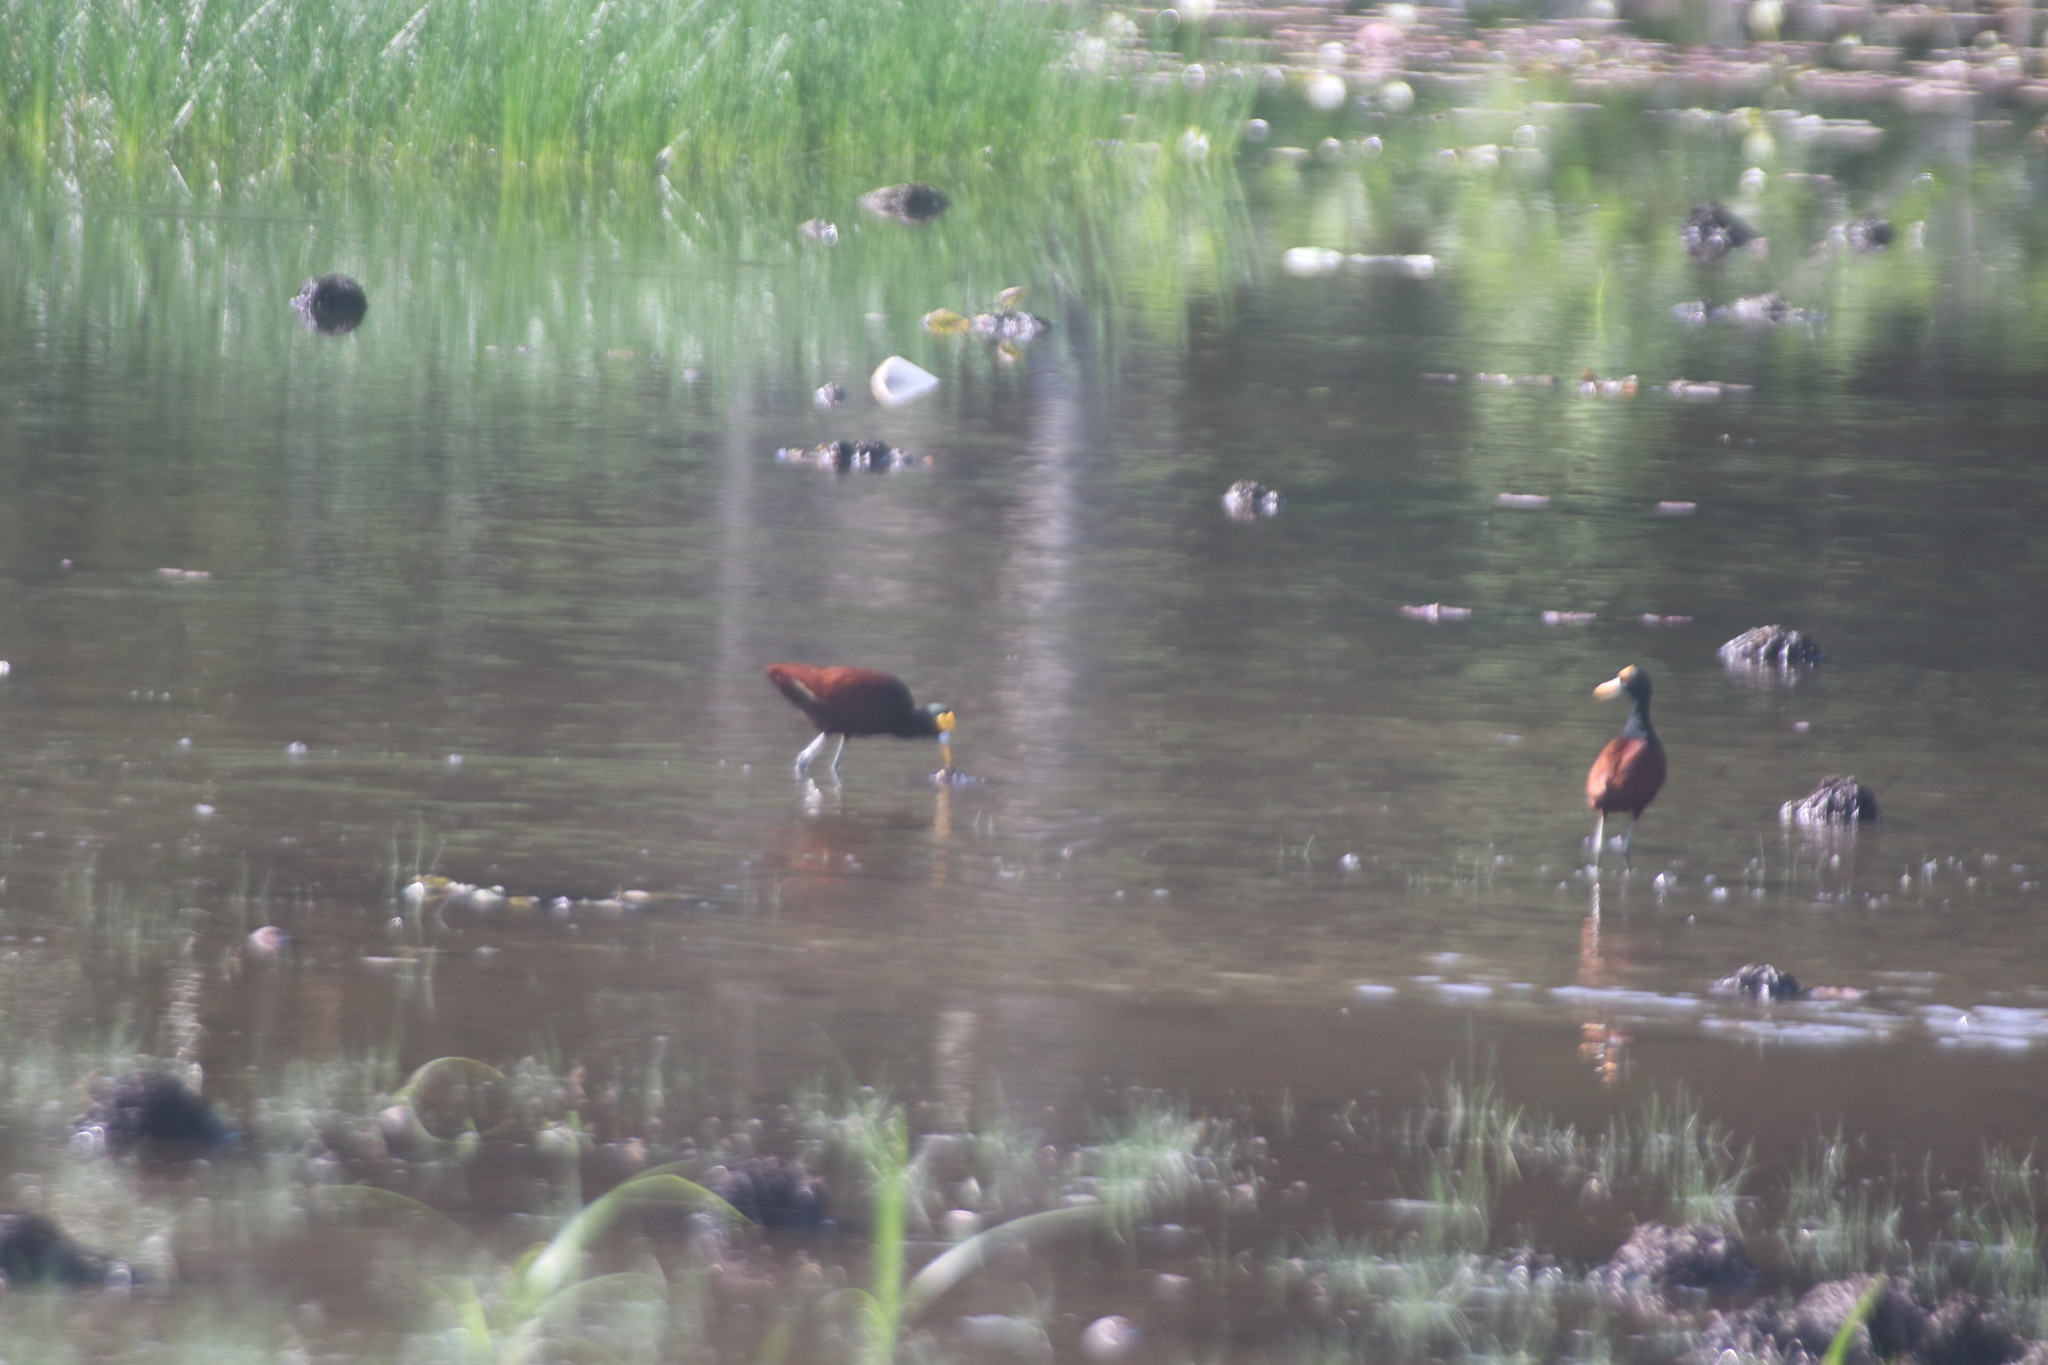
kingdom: Animalia
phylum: Chordata
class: Aves
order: Charadriiformes
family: Jacanidae
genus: Jacana
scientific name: Jacana spinosa
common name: Northern jacana
